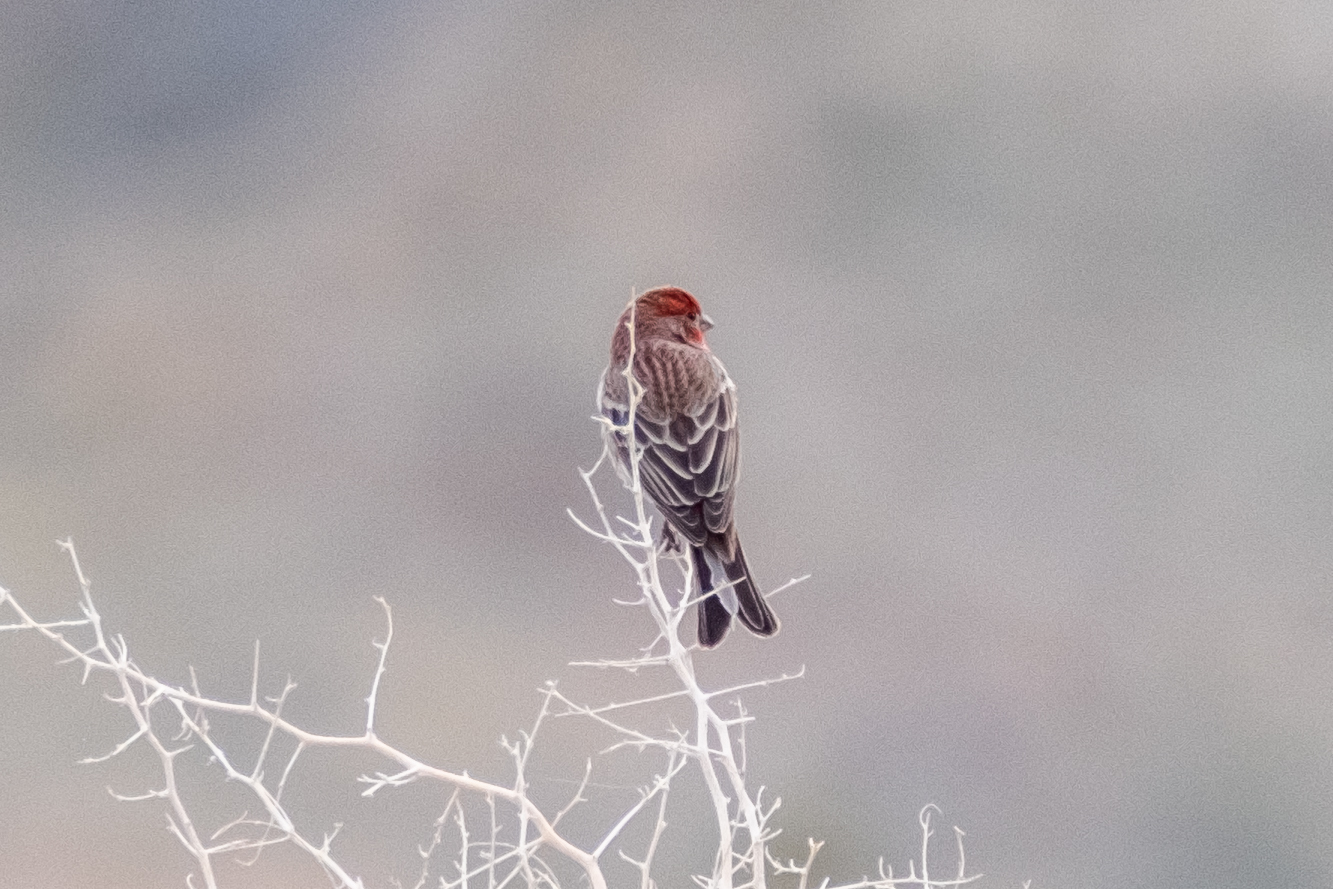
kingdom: Animalia
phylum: Chordata
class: Aves
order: Passeriformes
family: Fringillidae
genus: Haemorhous
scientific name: Haemorhous mexicanus
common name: House finch
